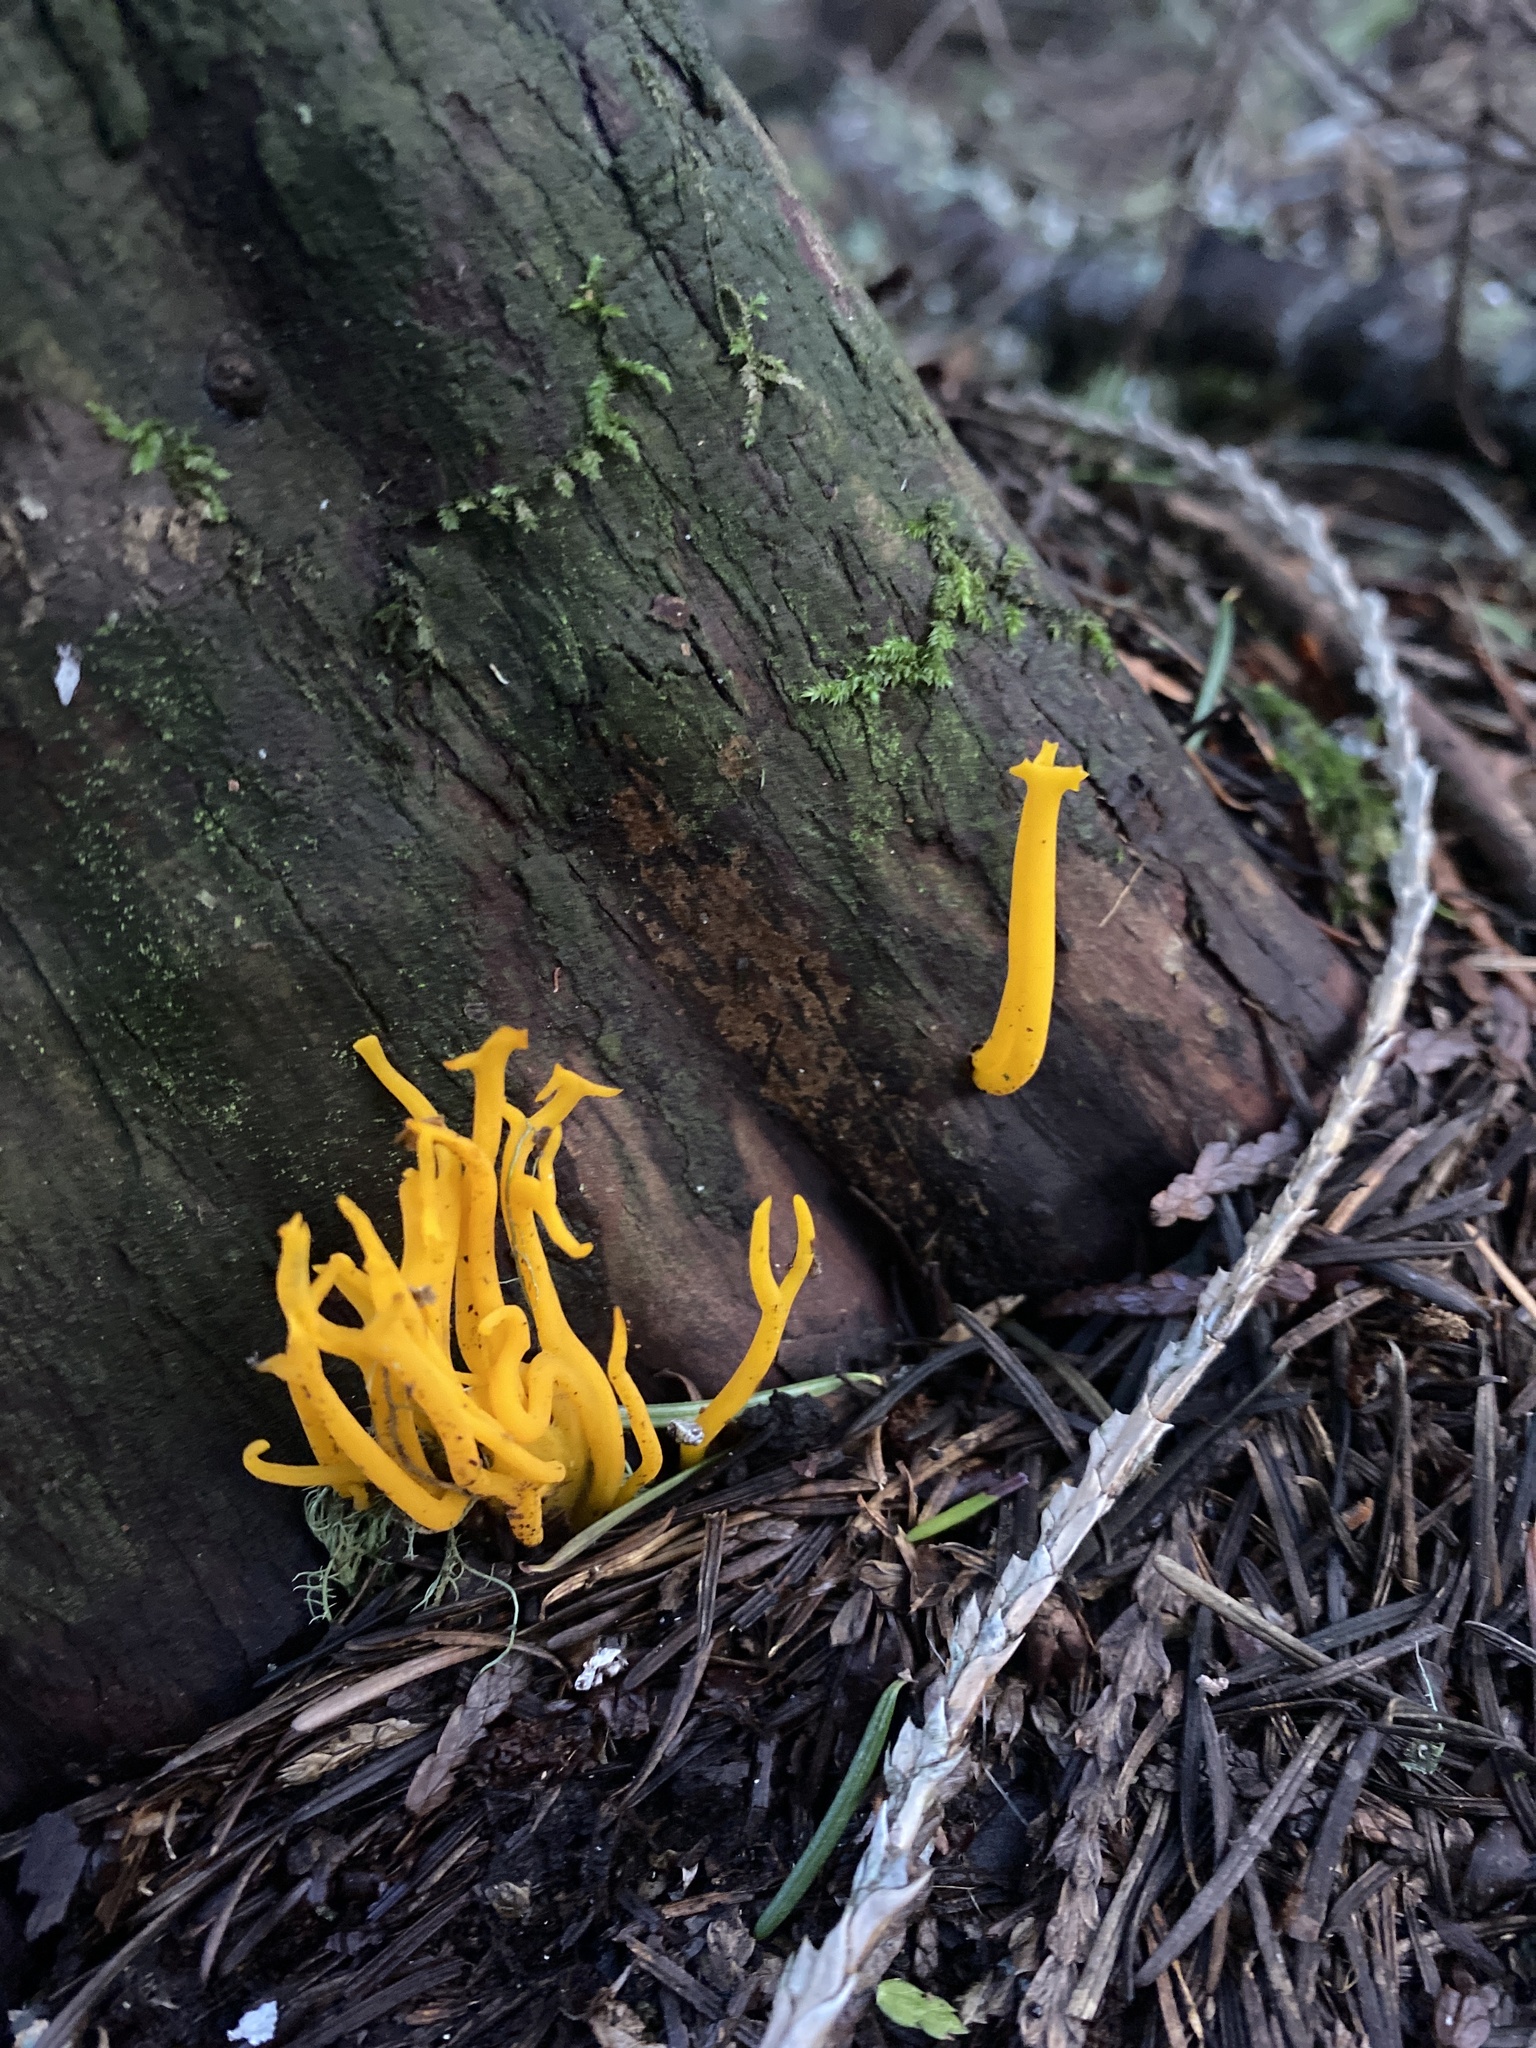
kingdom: Fungi
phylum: Basidiomycota
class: Dacrymycetes
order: Dacrymycetales
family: Dacrymycetaceae
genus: Calocera
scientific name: Calocera viscosa
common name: Yellow stagshorn
